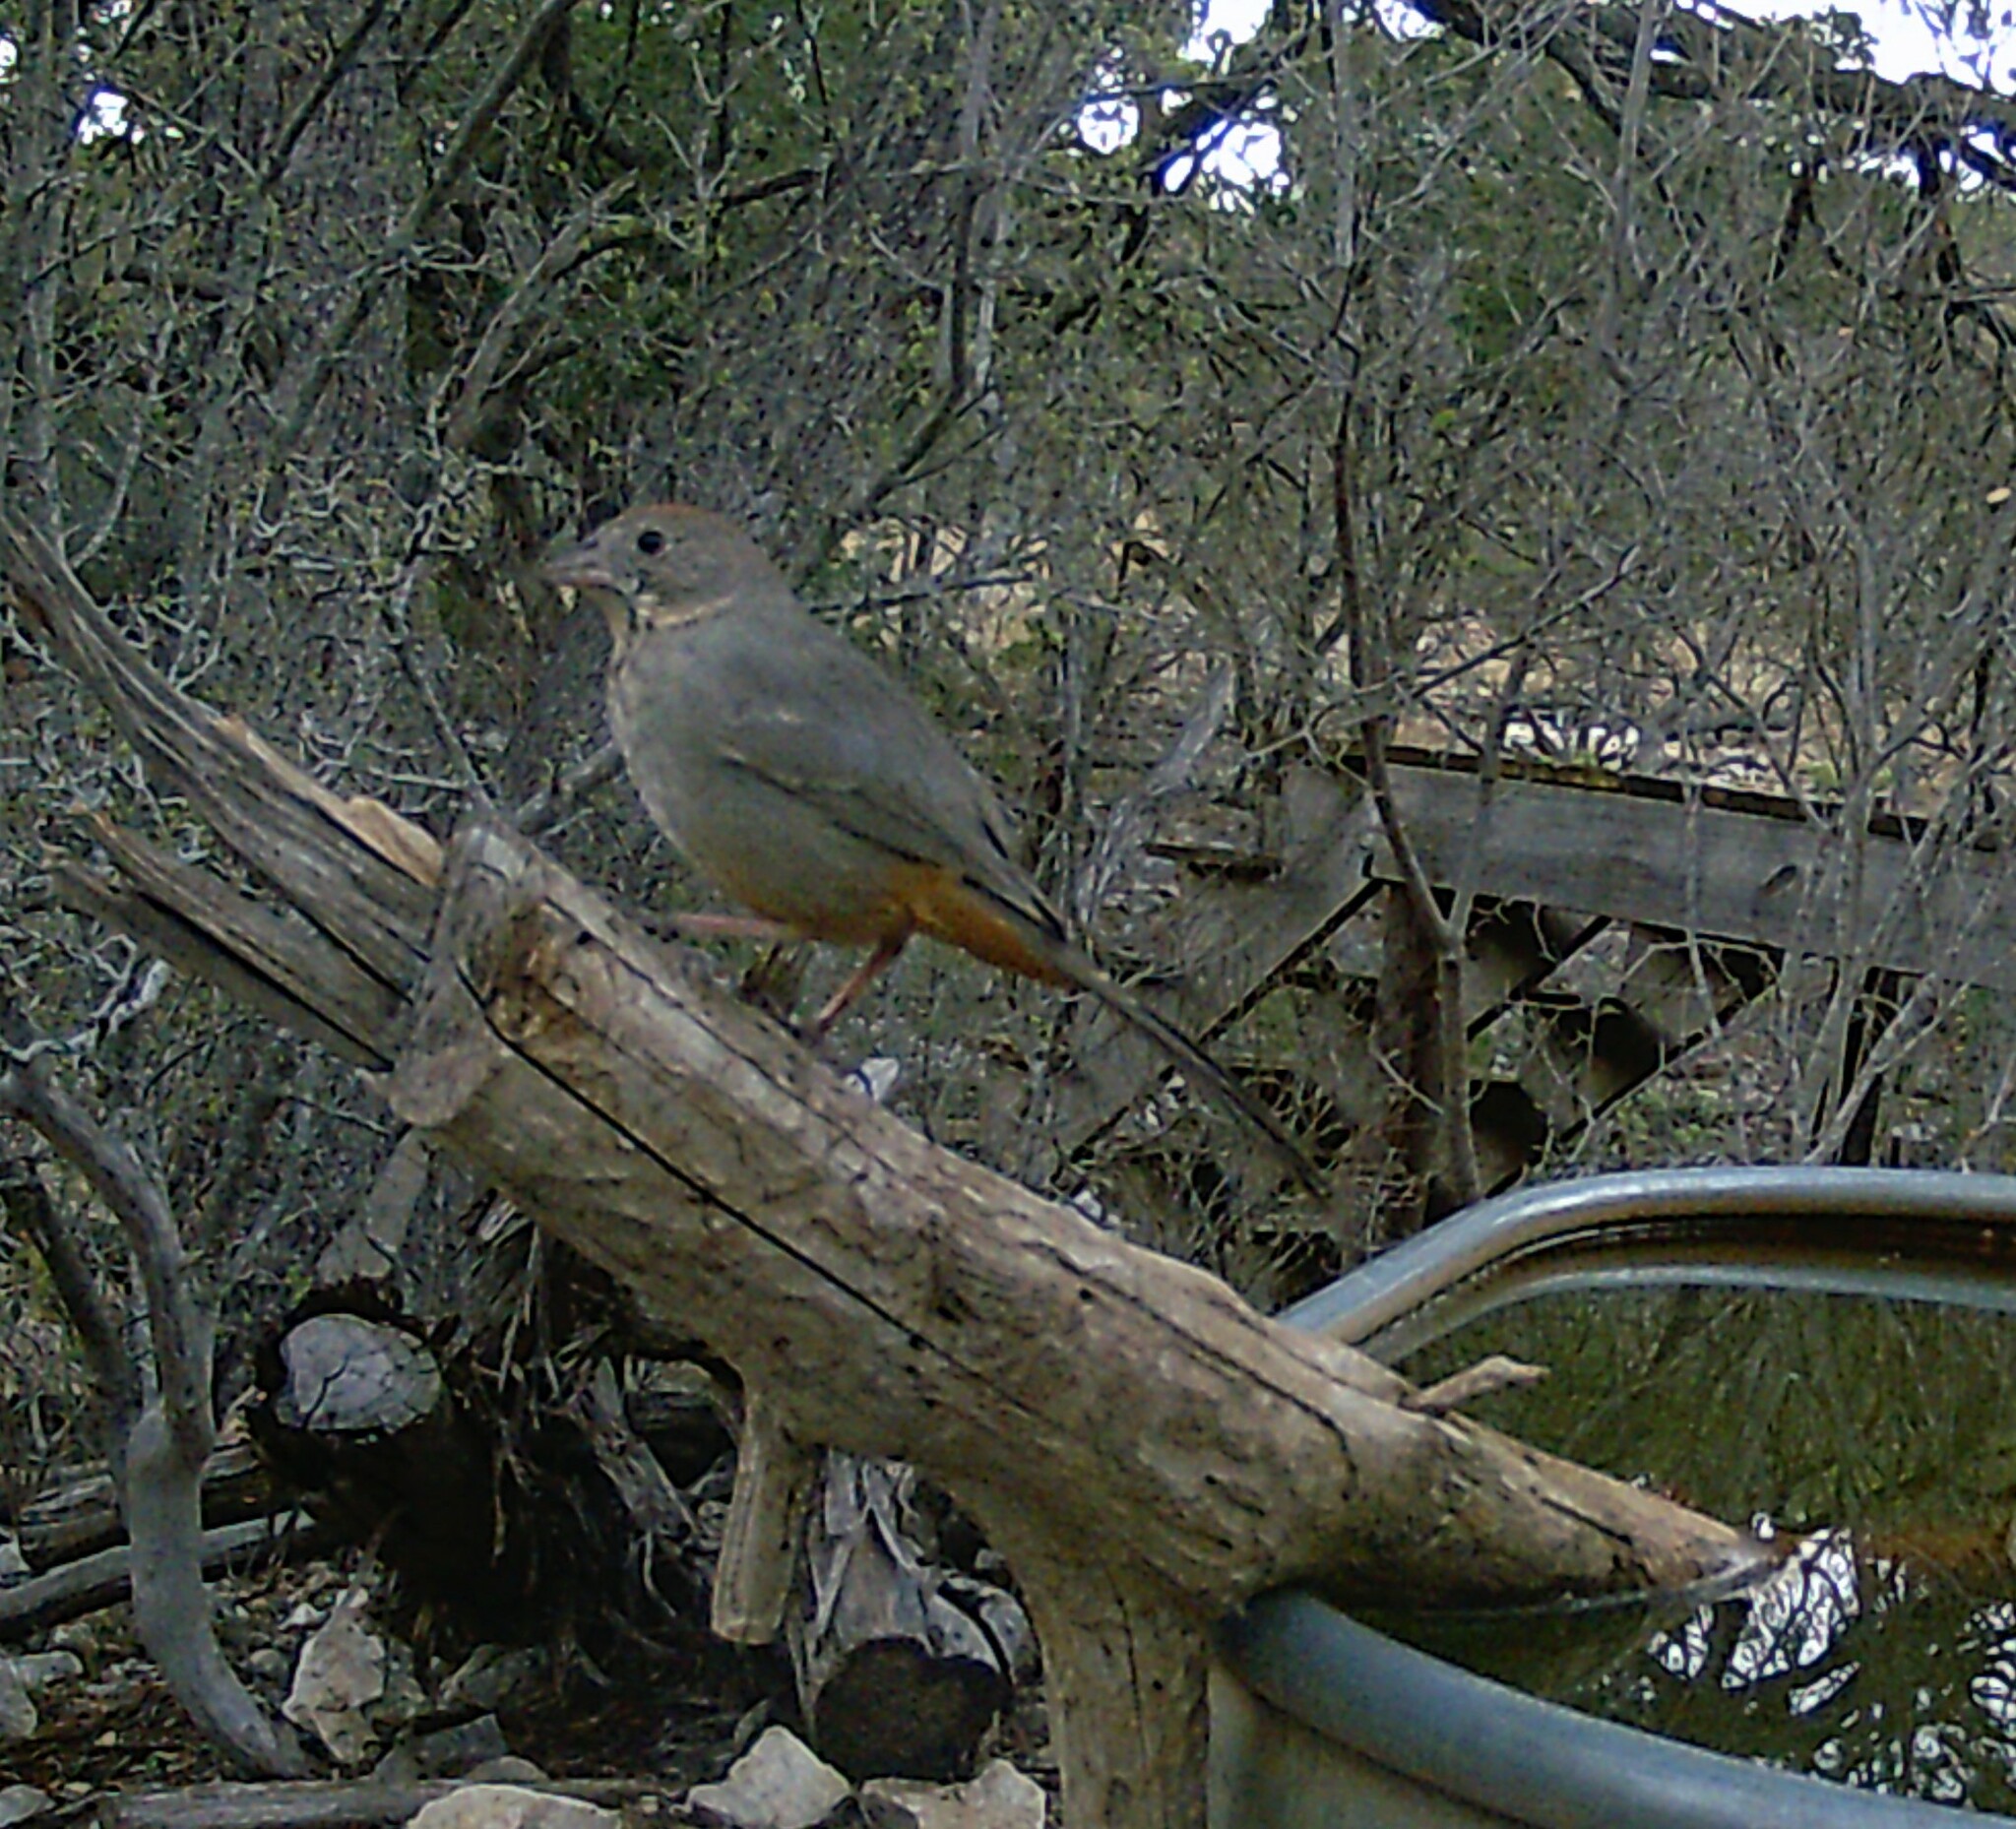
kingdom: Animalia
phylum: Chordata
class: Aves
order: Passeriformes
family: Passerellidae
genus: Melozone
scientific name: Melozone fusca
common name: Canyon towhee
